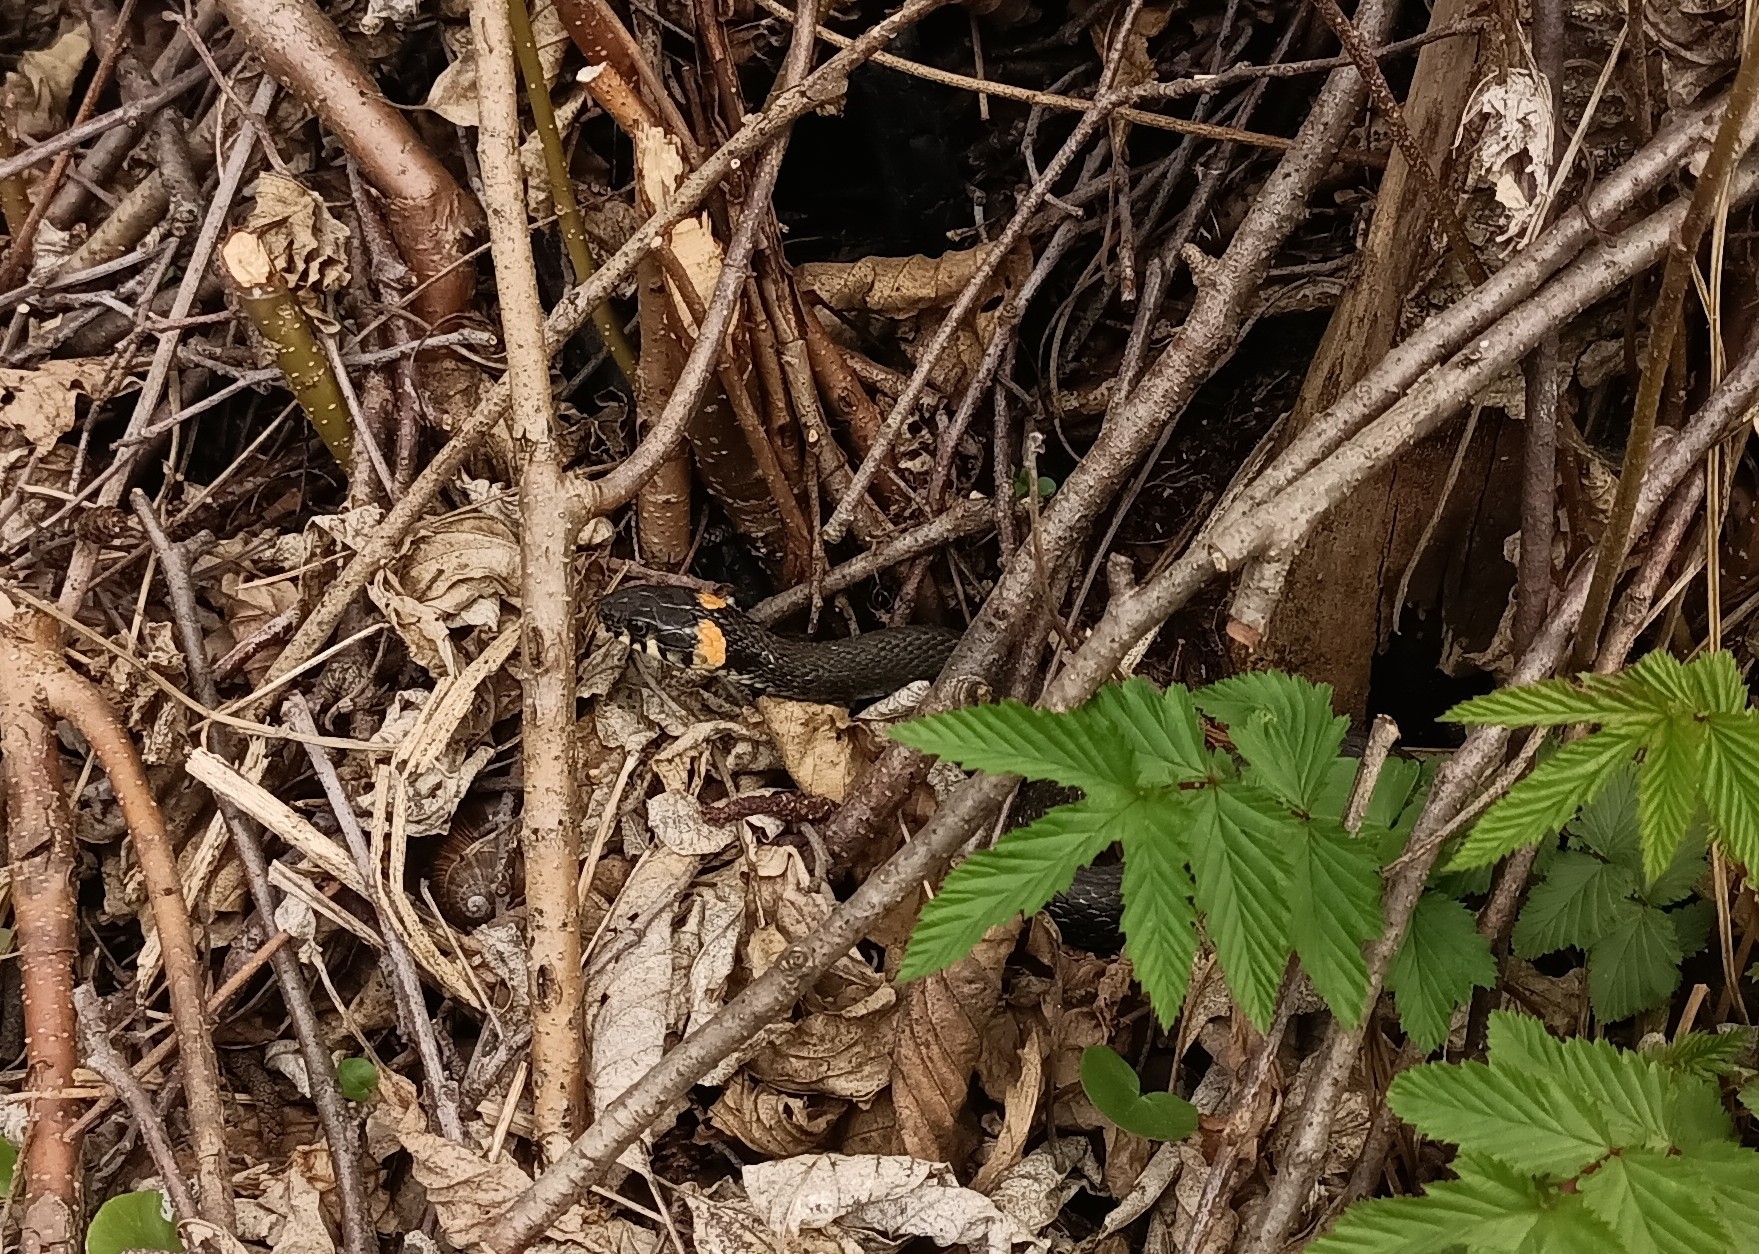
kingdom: Animalia
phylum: Chordata
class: Squamata
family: Colubridae
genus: Natrix
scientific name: Natrix natrix
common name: Grass snake
